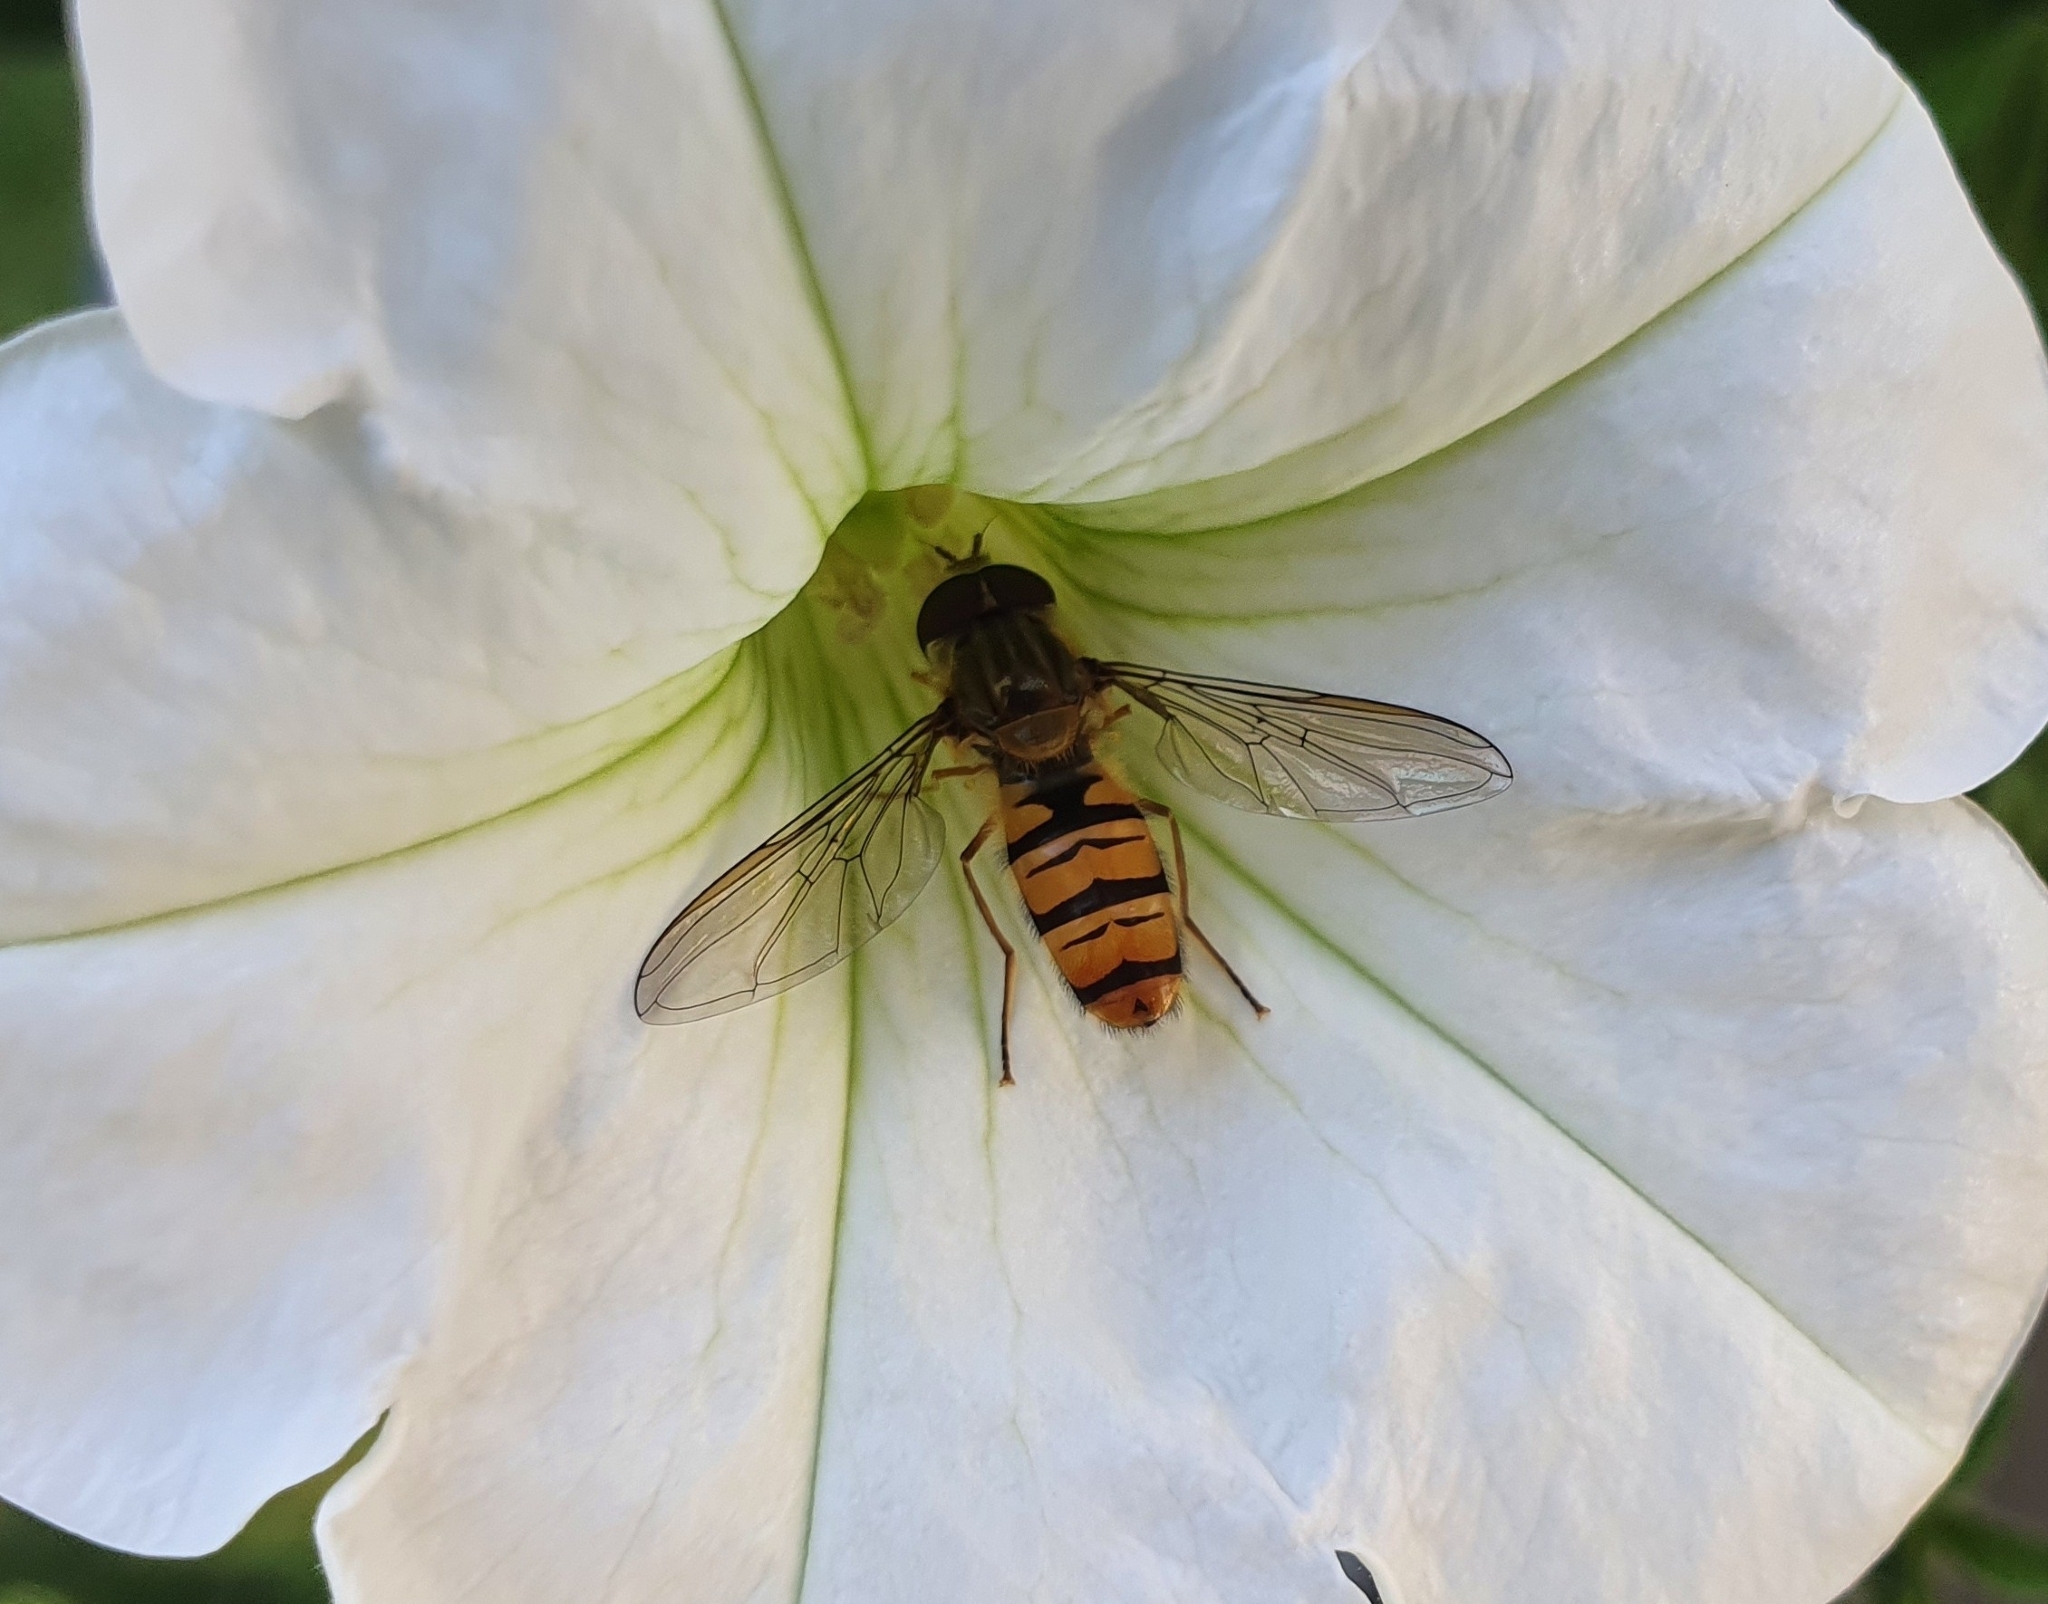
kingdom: Animalia
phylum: Arthropoda
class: Insecta
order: Diptera
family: Syrphidae
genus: Episyrphus
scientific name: Episyrphus balteatus
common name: Marmalade hoverfly
